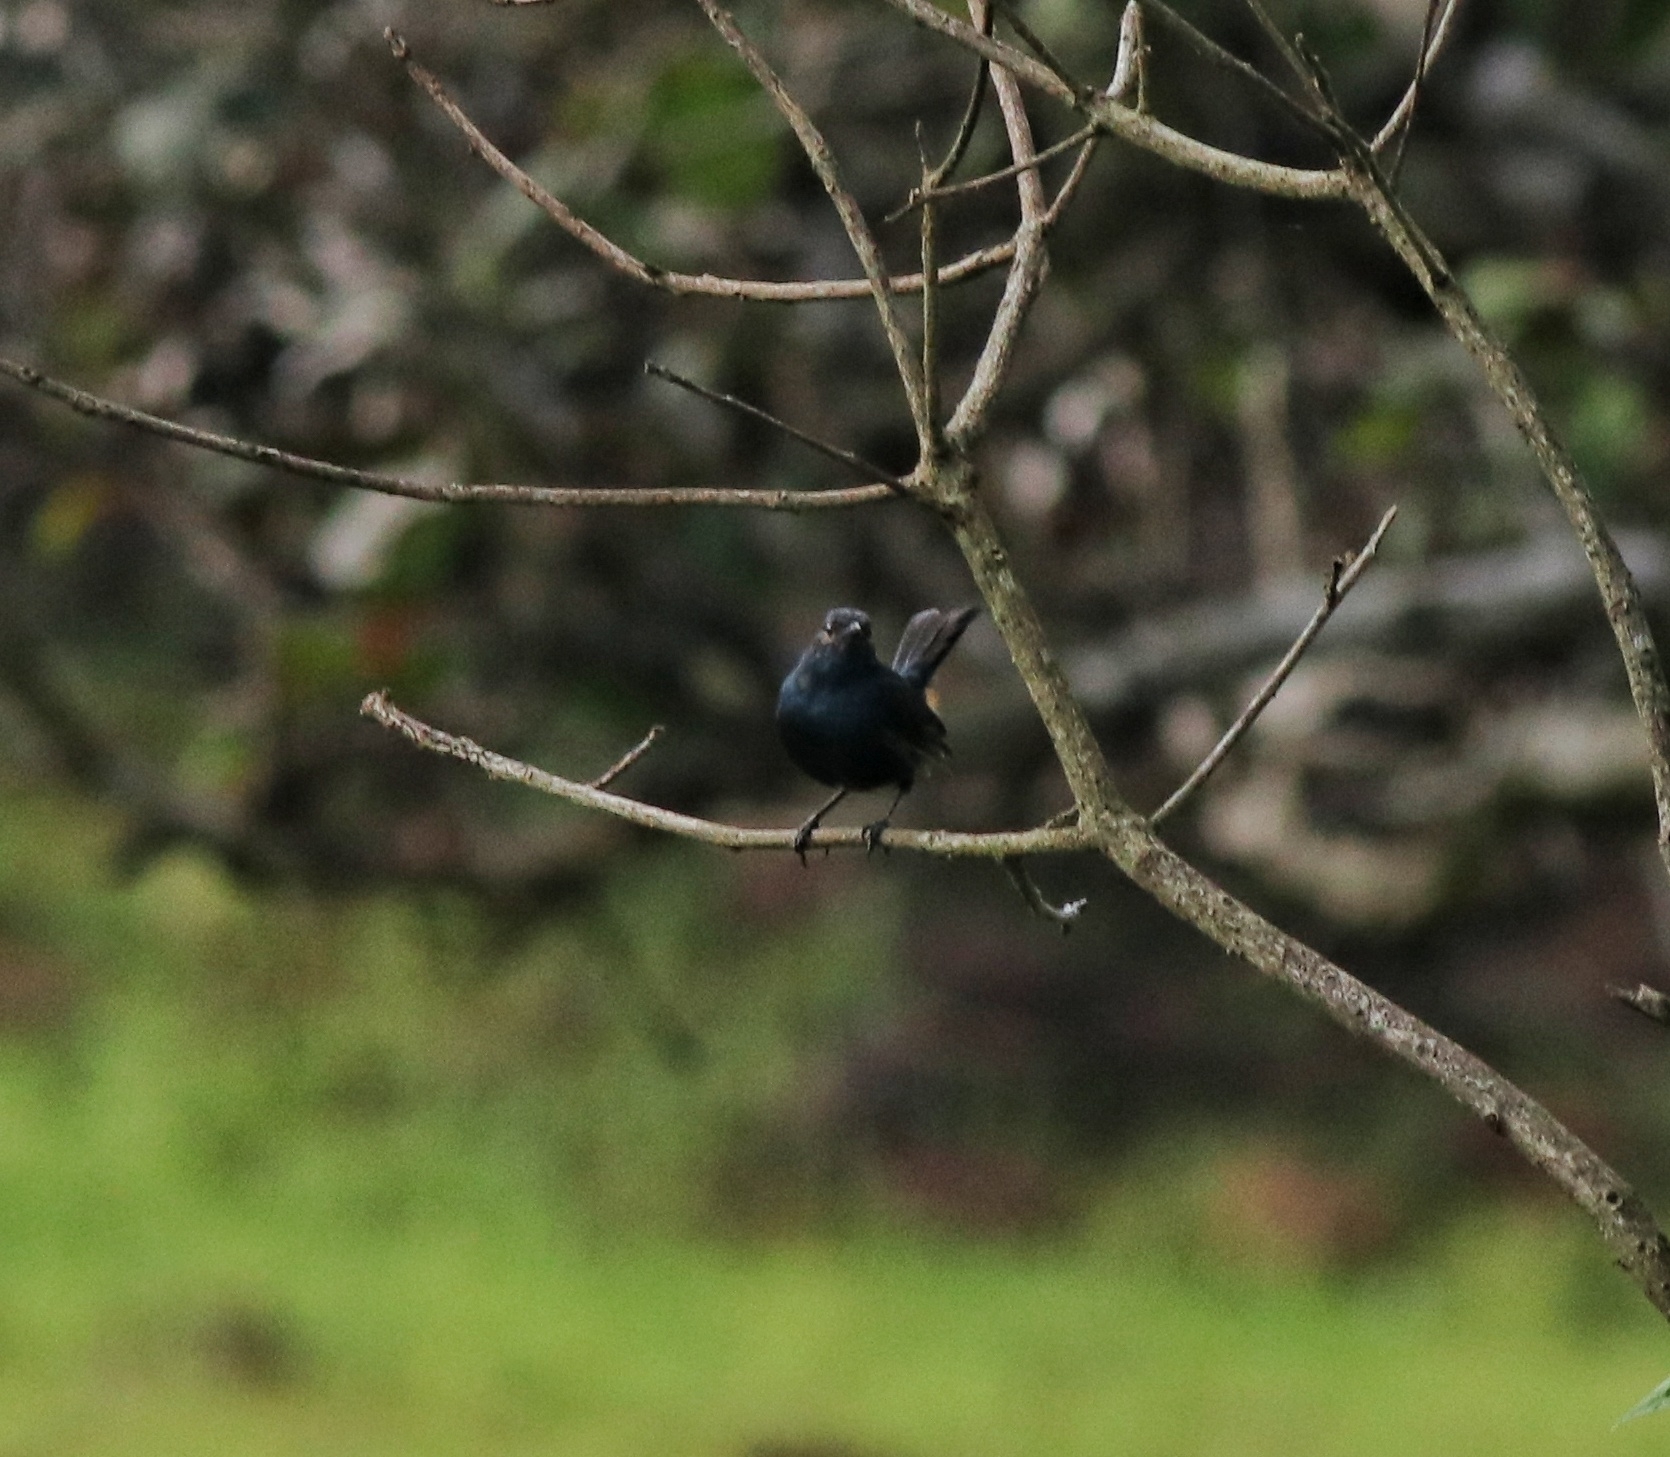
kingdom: Animalia
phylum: Chordata
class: Aves
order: Passeriformes
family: Muscicapidae
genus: Saxicoloides
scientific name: Saxicoloides fulicatus
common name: Indian robin
